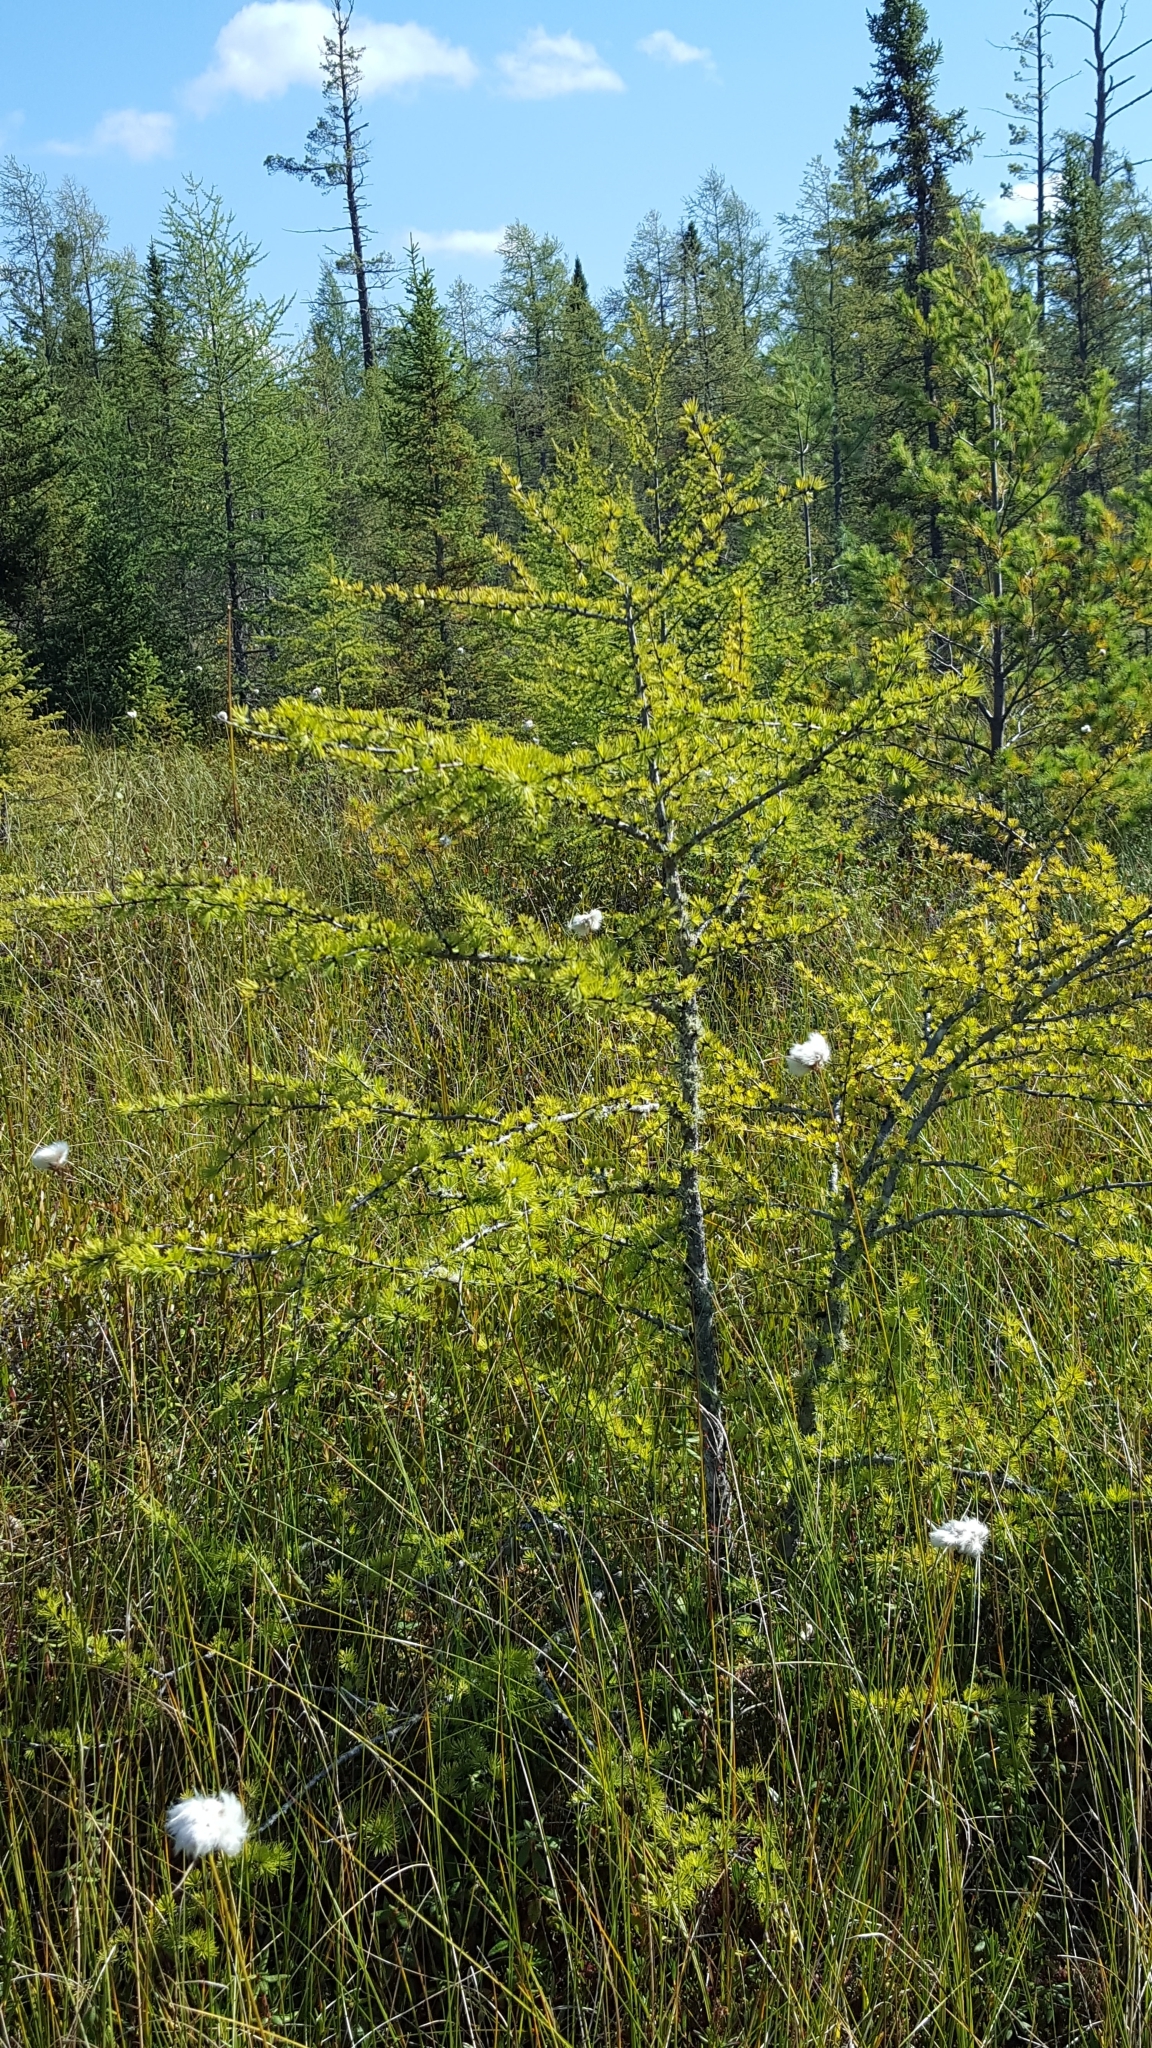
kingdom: Plantae
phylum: Tracheophyta
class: Pinopsida
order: Pinales
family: Pinaceae
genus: Larix
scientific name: Larix laricina
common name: American larch
